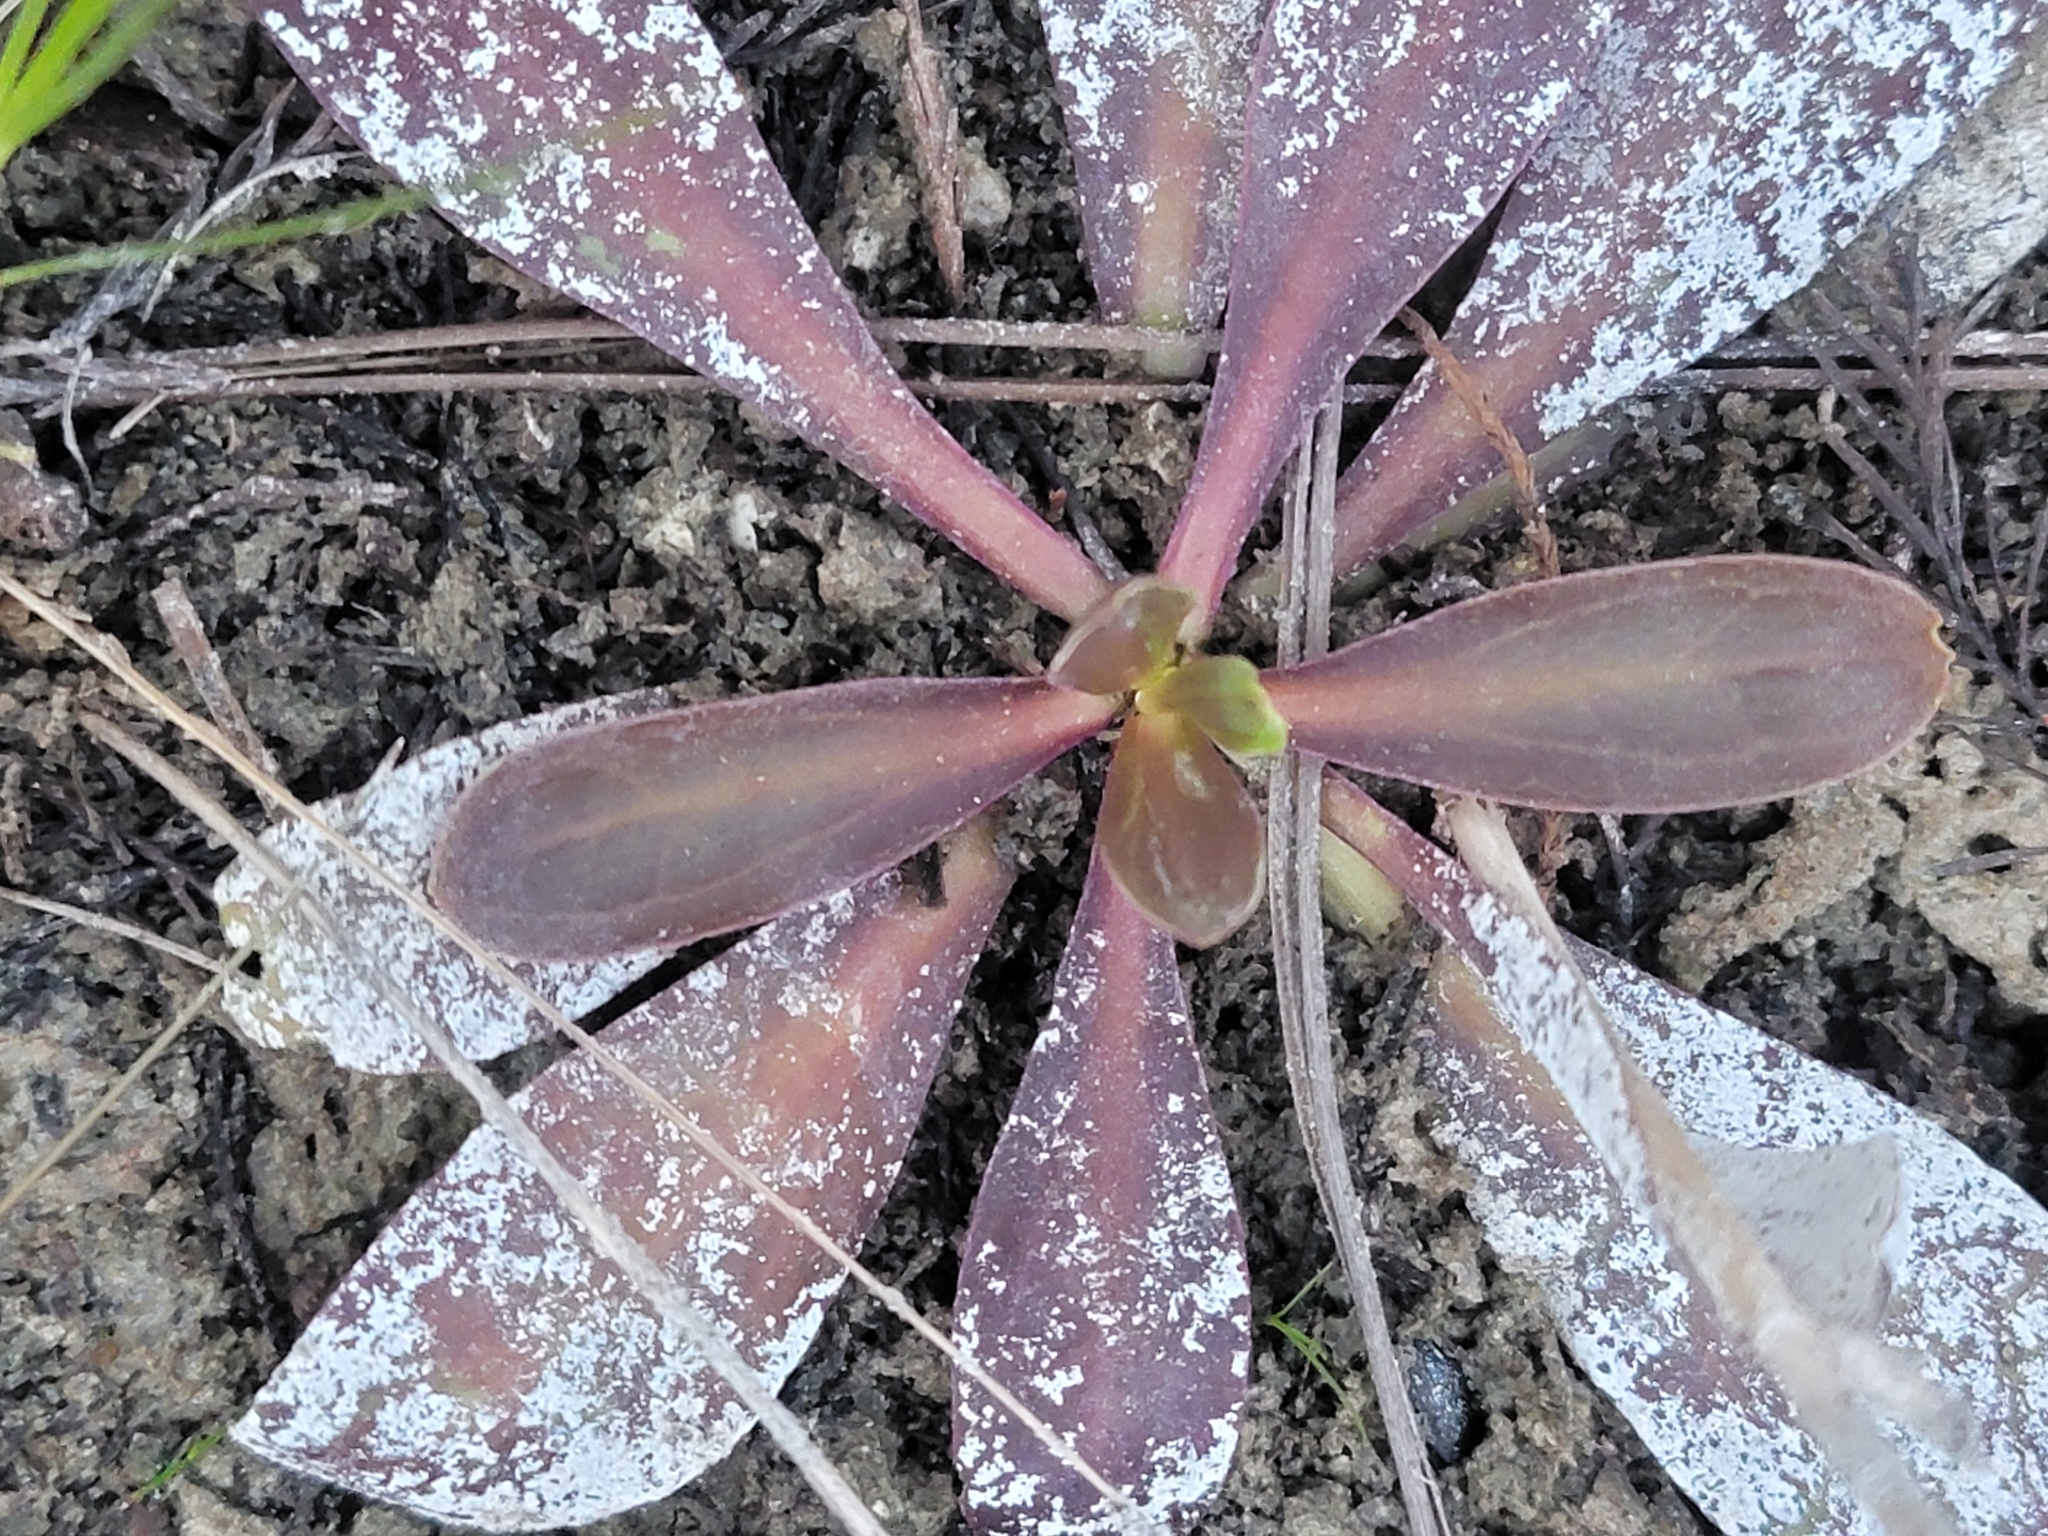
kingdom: Plantae
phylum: Tracheophyta
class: Magnoliopsida
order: Asterales
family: Asteraceae
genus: Helenium
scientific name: Helenium pinnatifidum
